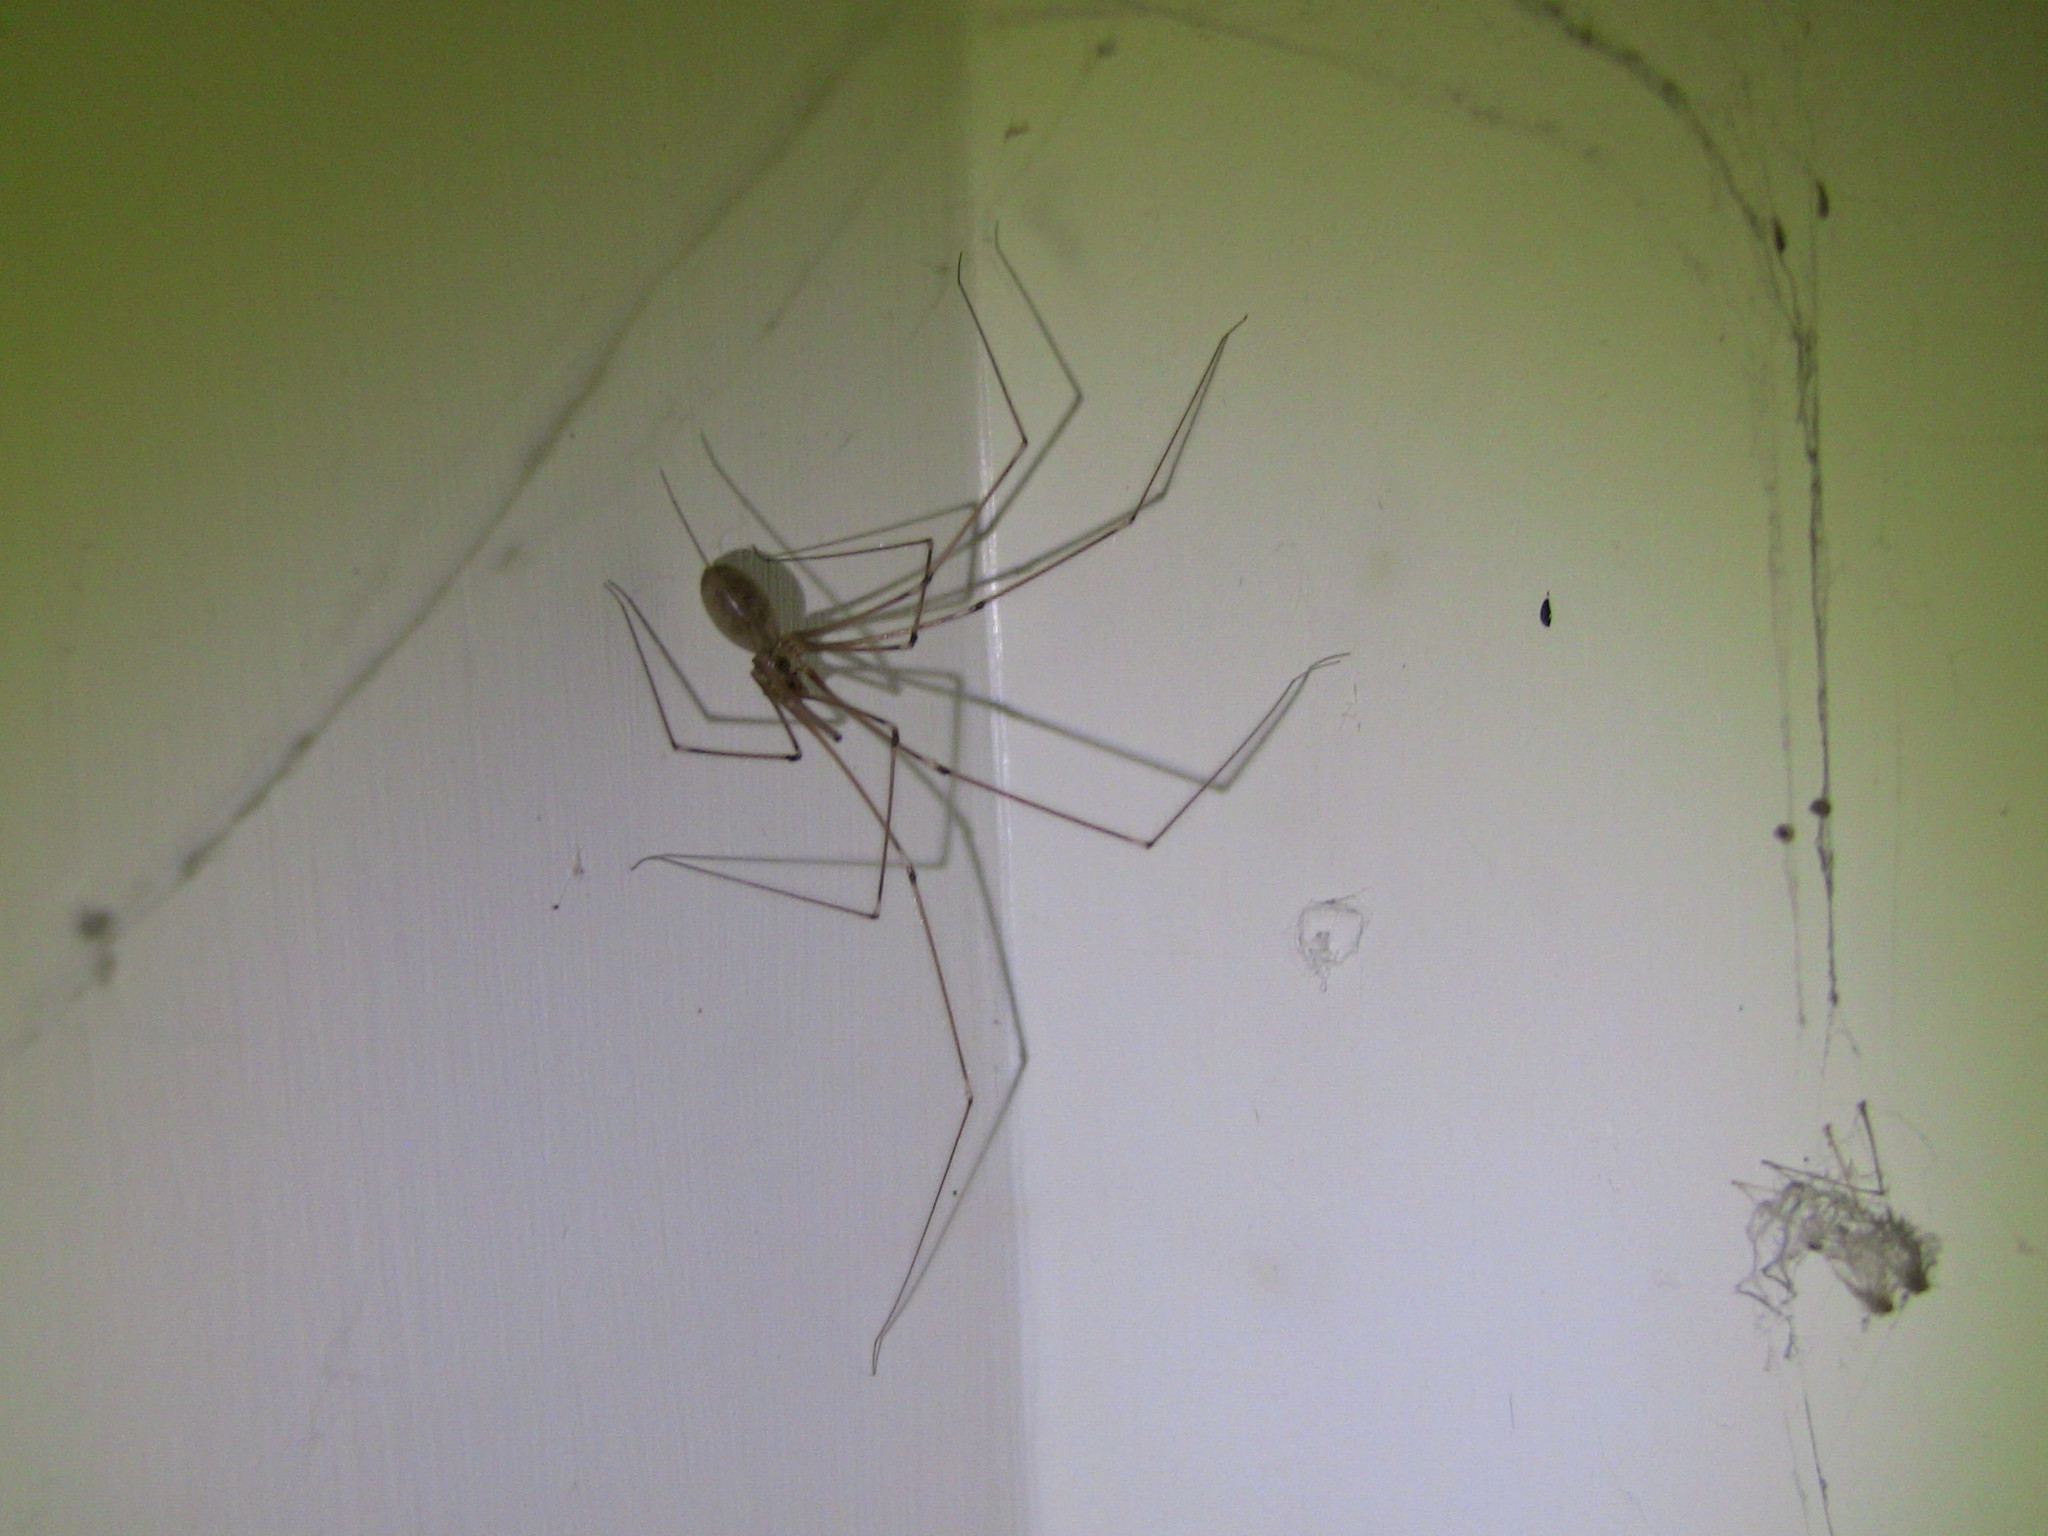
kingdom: Animalia
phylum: Arthropoda
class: Arachnida
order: Araneae
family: Pholcidae
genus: Pholcus
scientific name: Pholcus phalangioides
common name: Longbodied cellar spider
